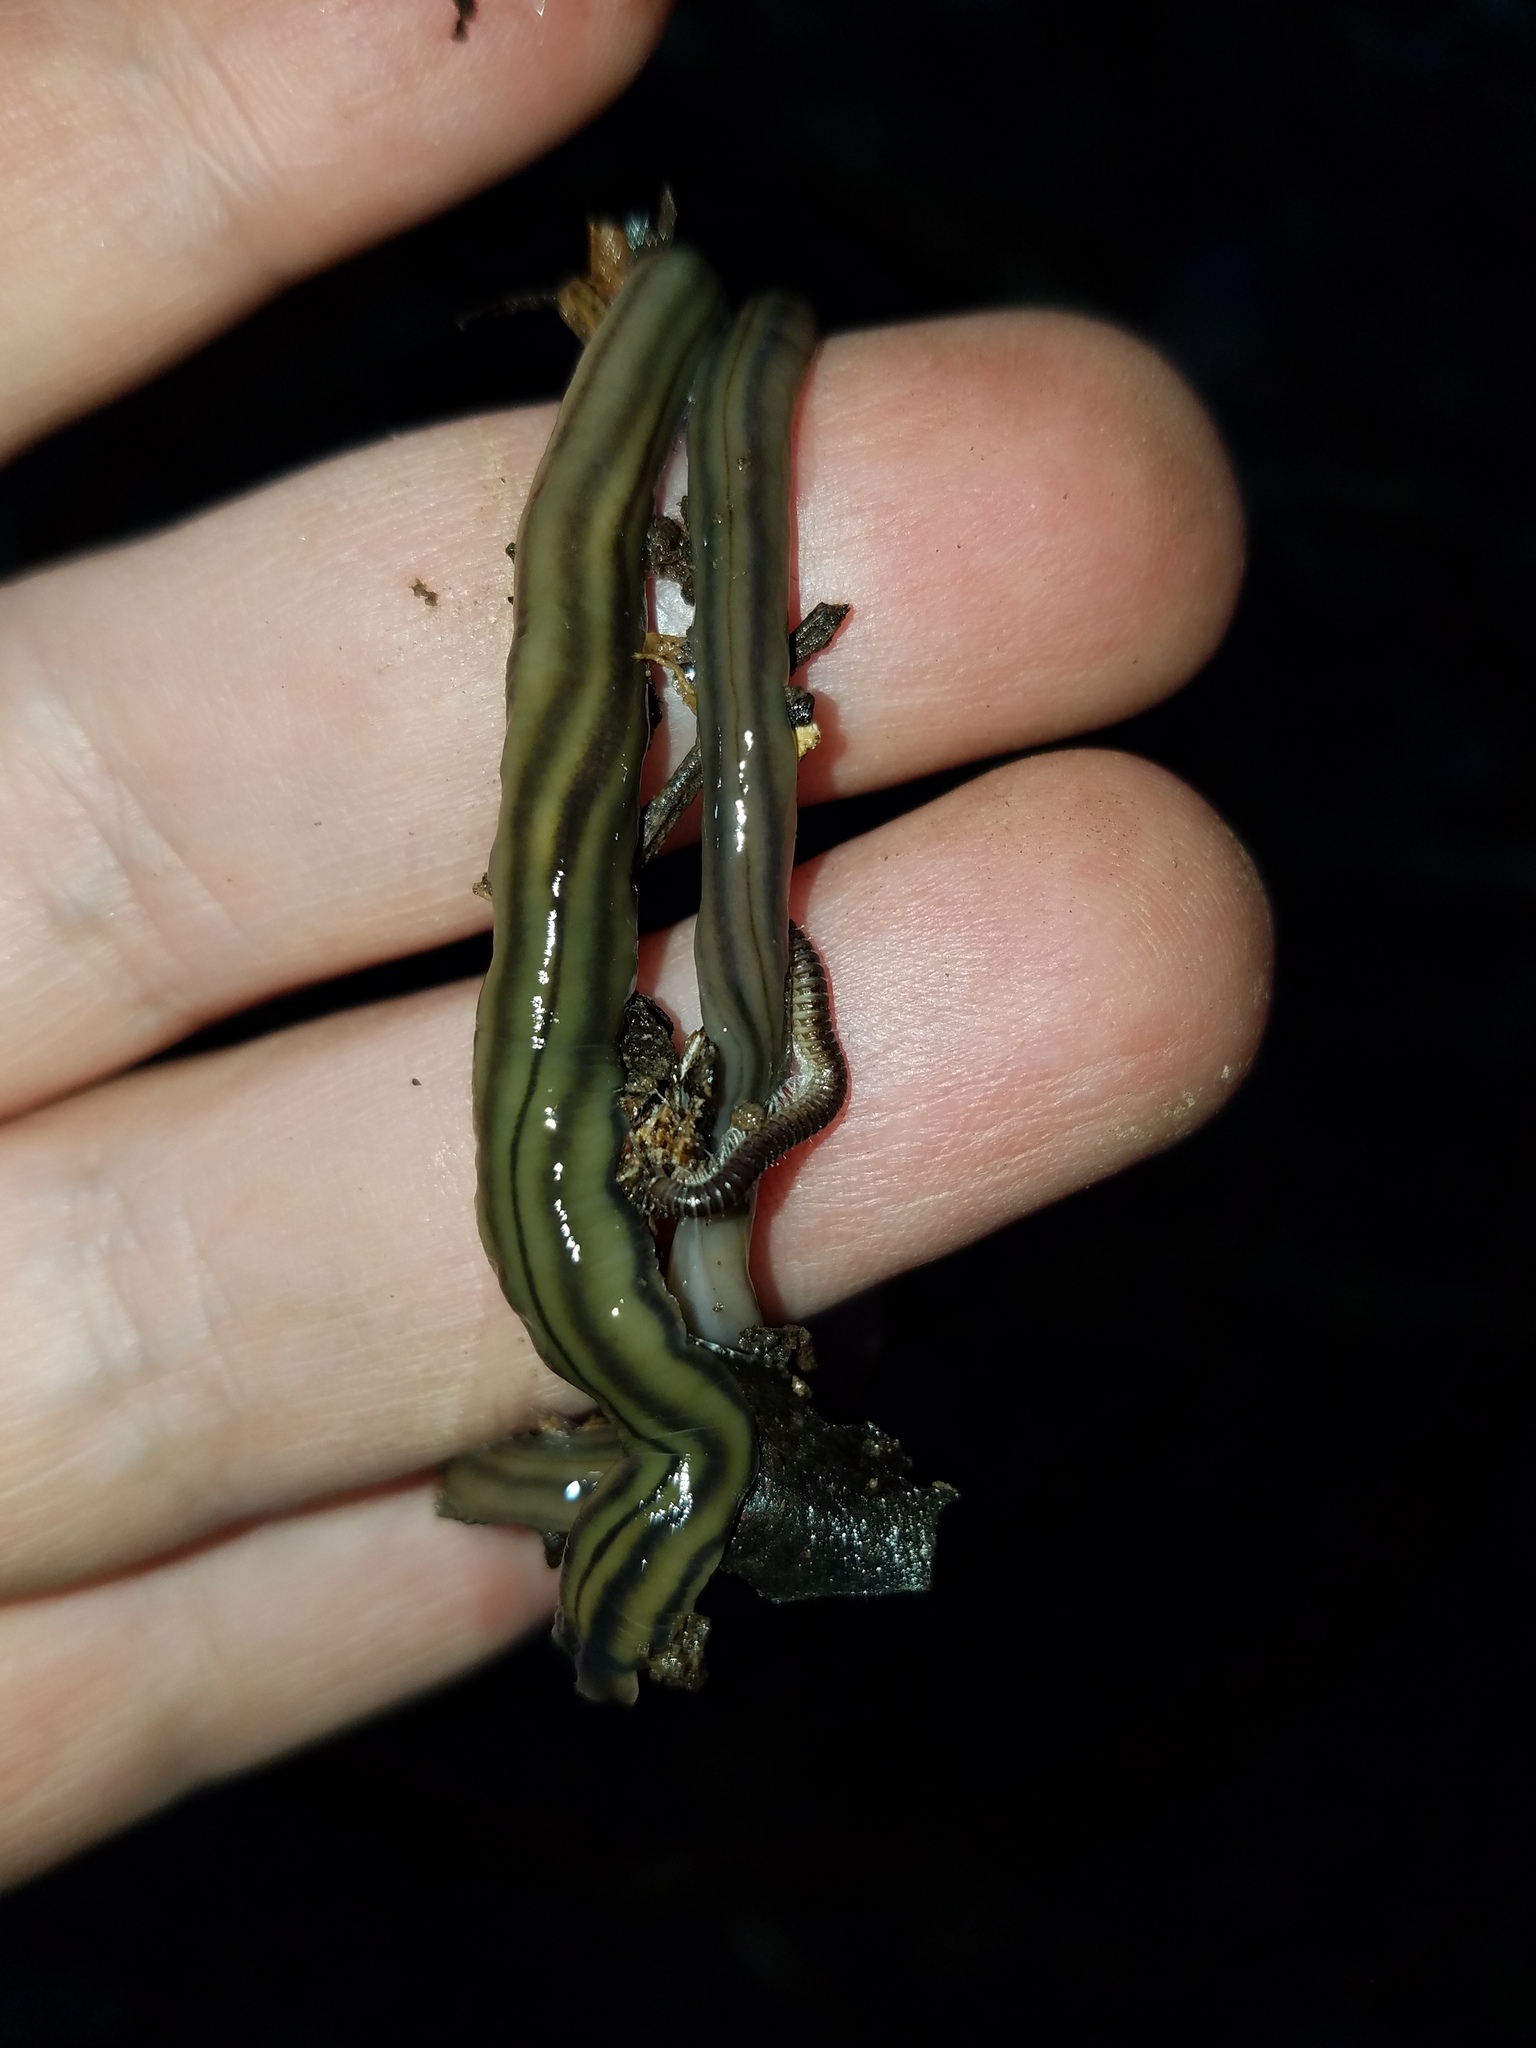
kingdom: Animalia
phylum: Platyhelminthes
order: Tricladida
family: Geoplanidae
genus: Bipalium
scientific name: Bipalium kewense
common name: Hammerhead flatworm
